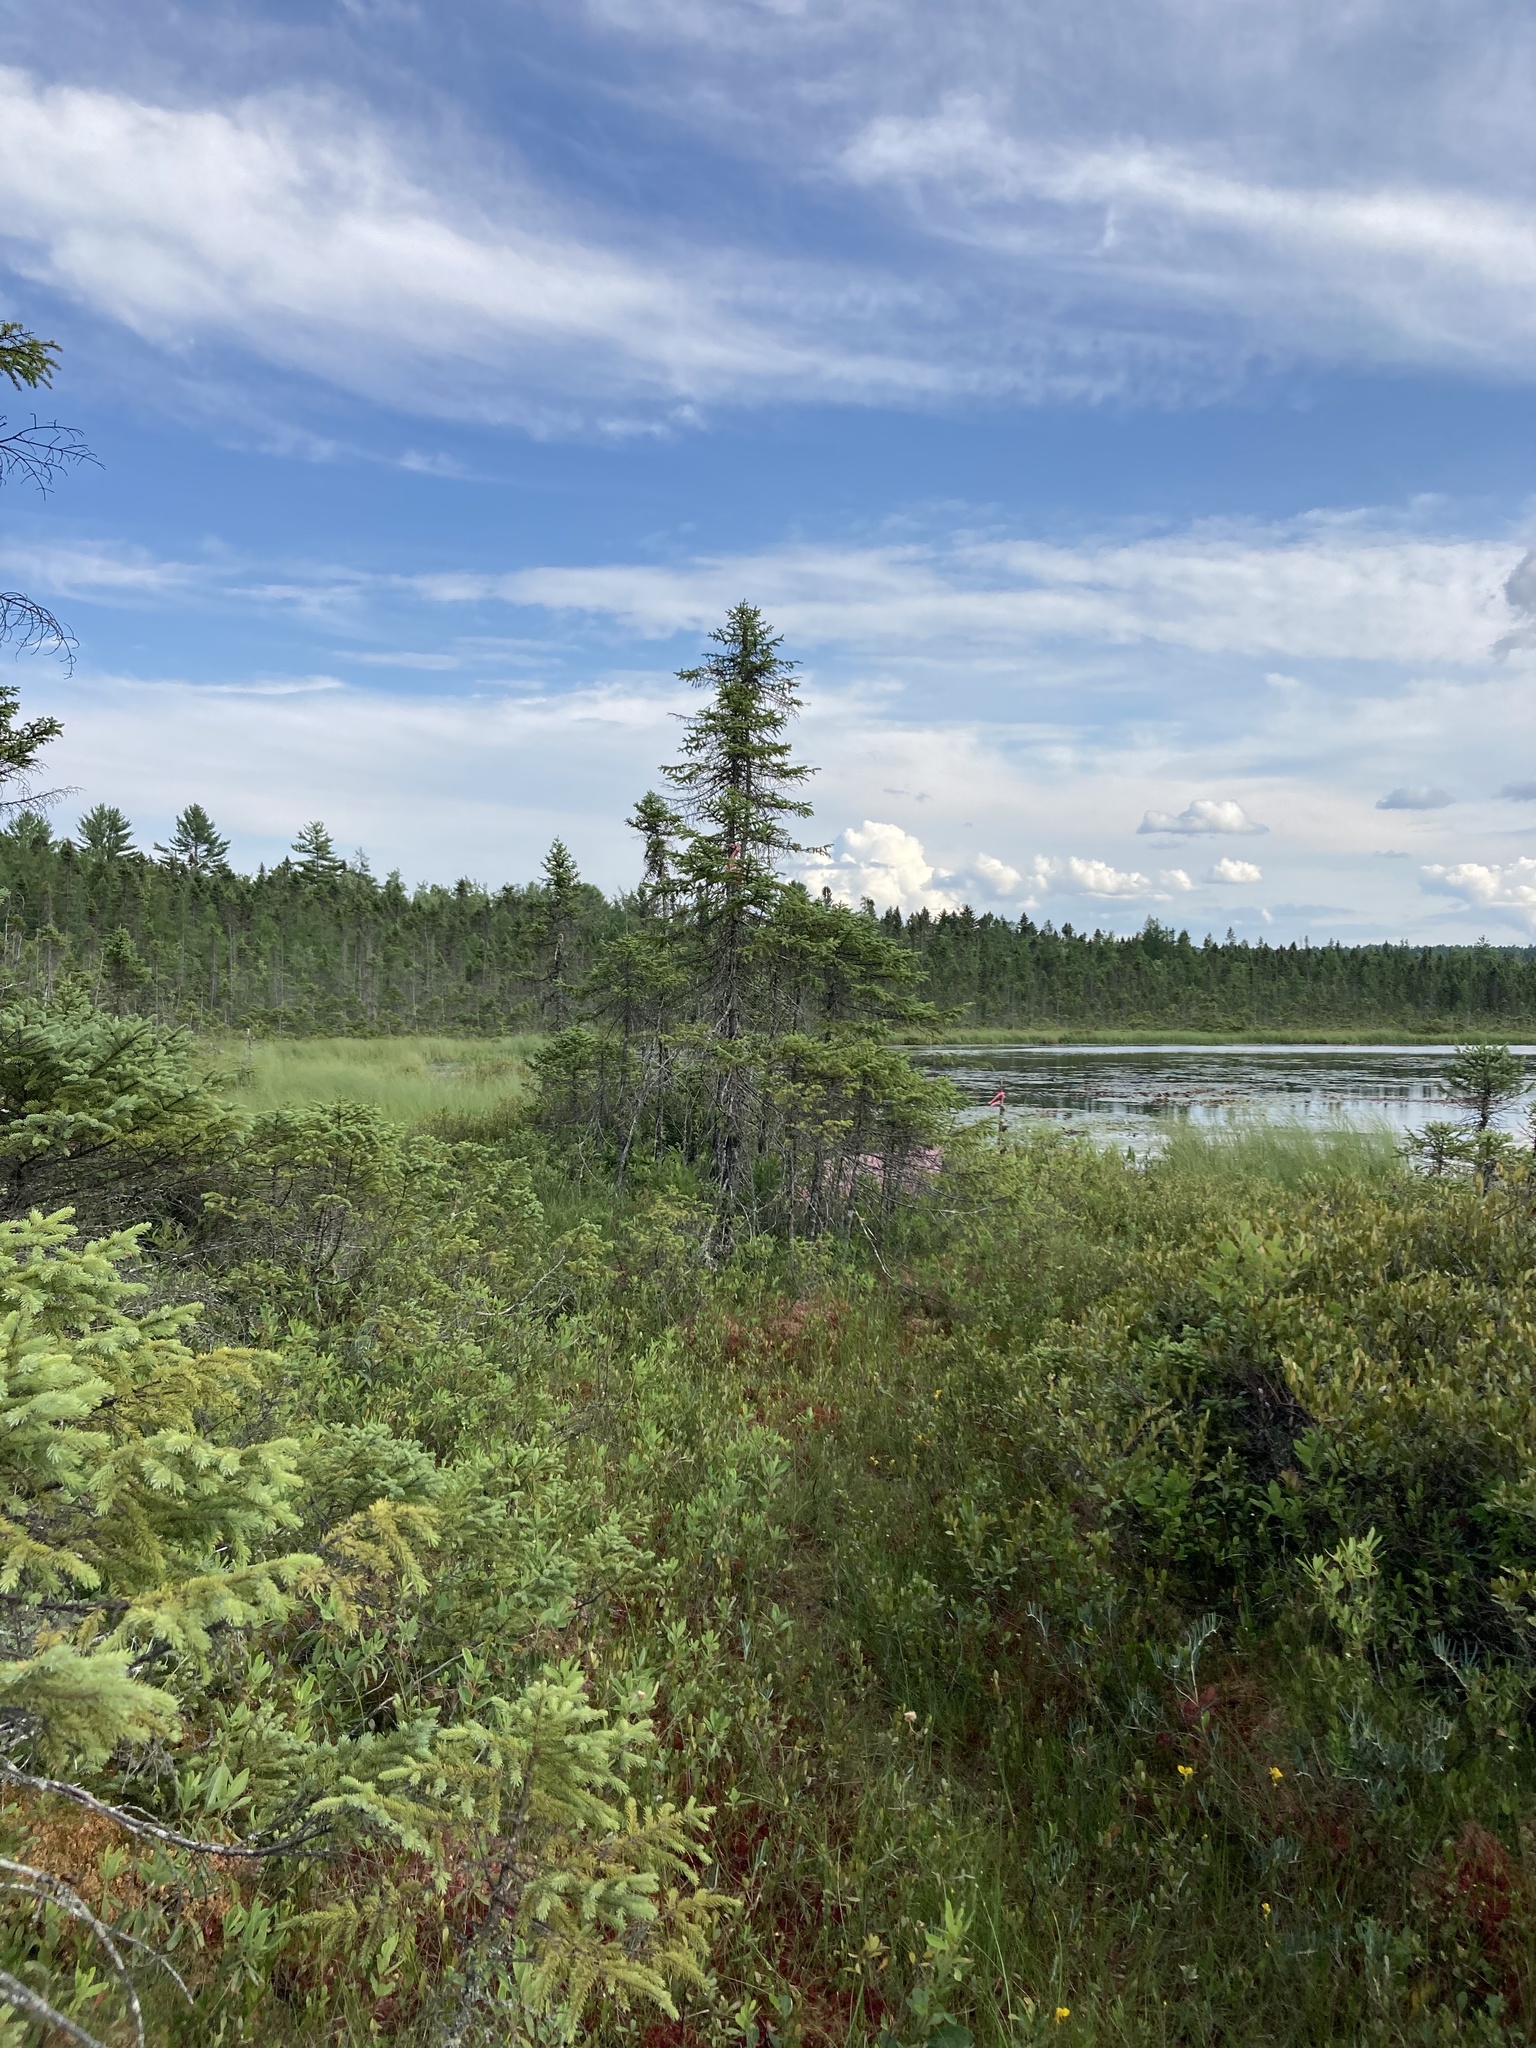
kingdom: Plantae
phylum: Tracheophyta
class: Pinopsida
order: Pinales
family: Pinaceae
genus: Picea
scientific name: Picea mariana
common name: Black spruce
